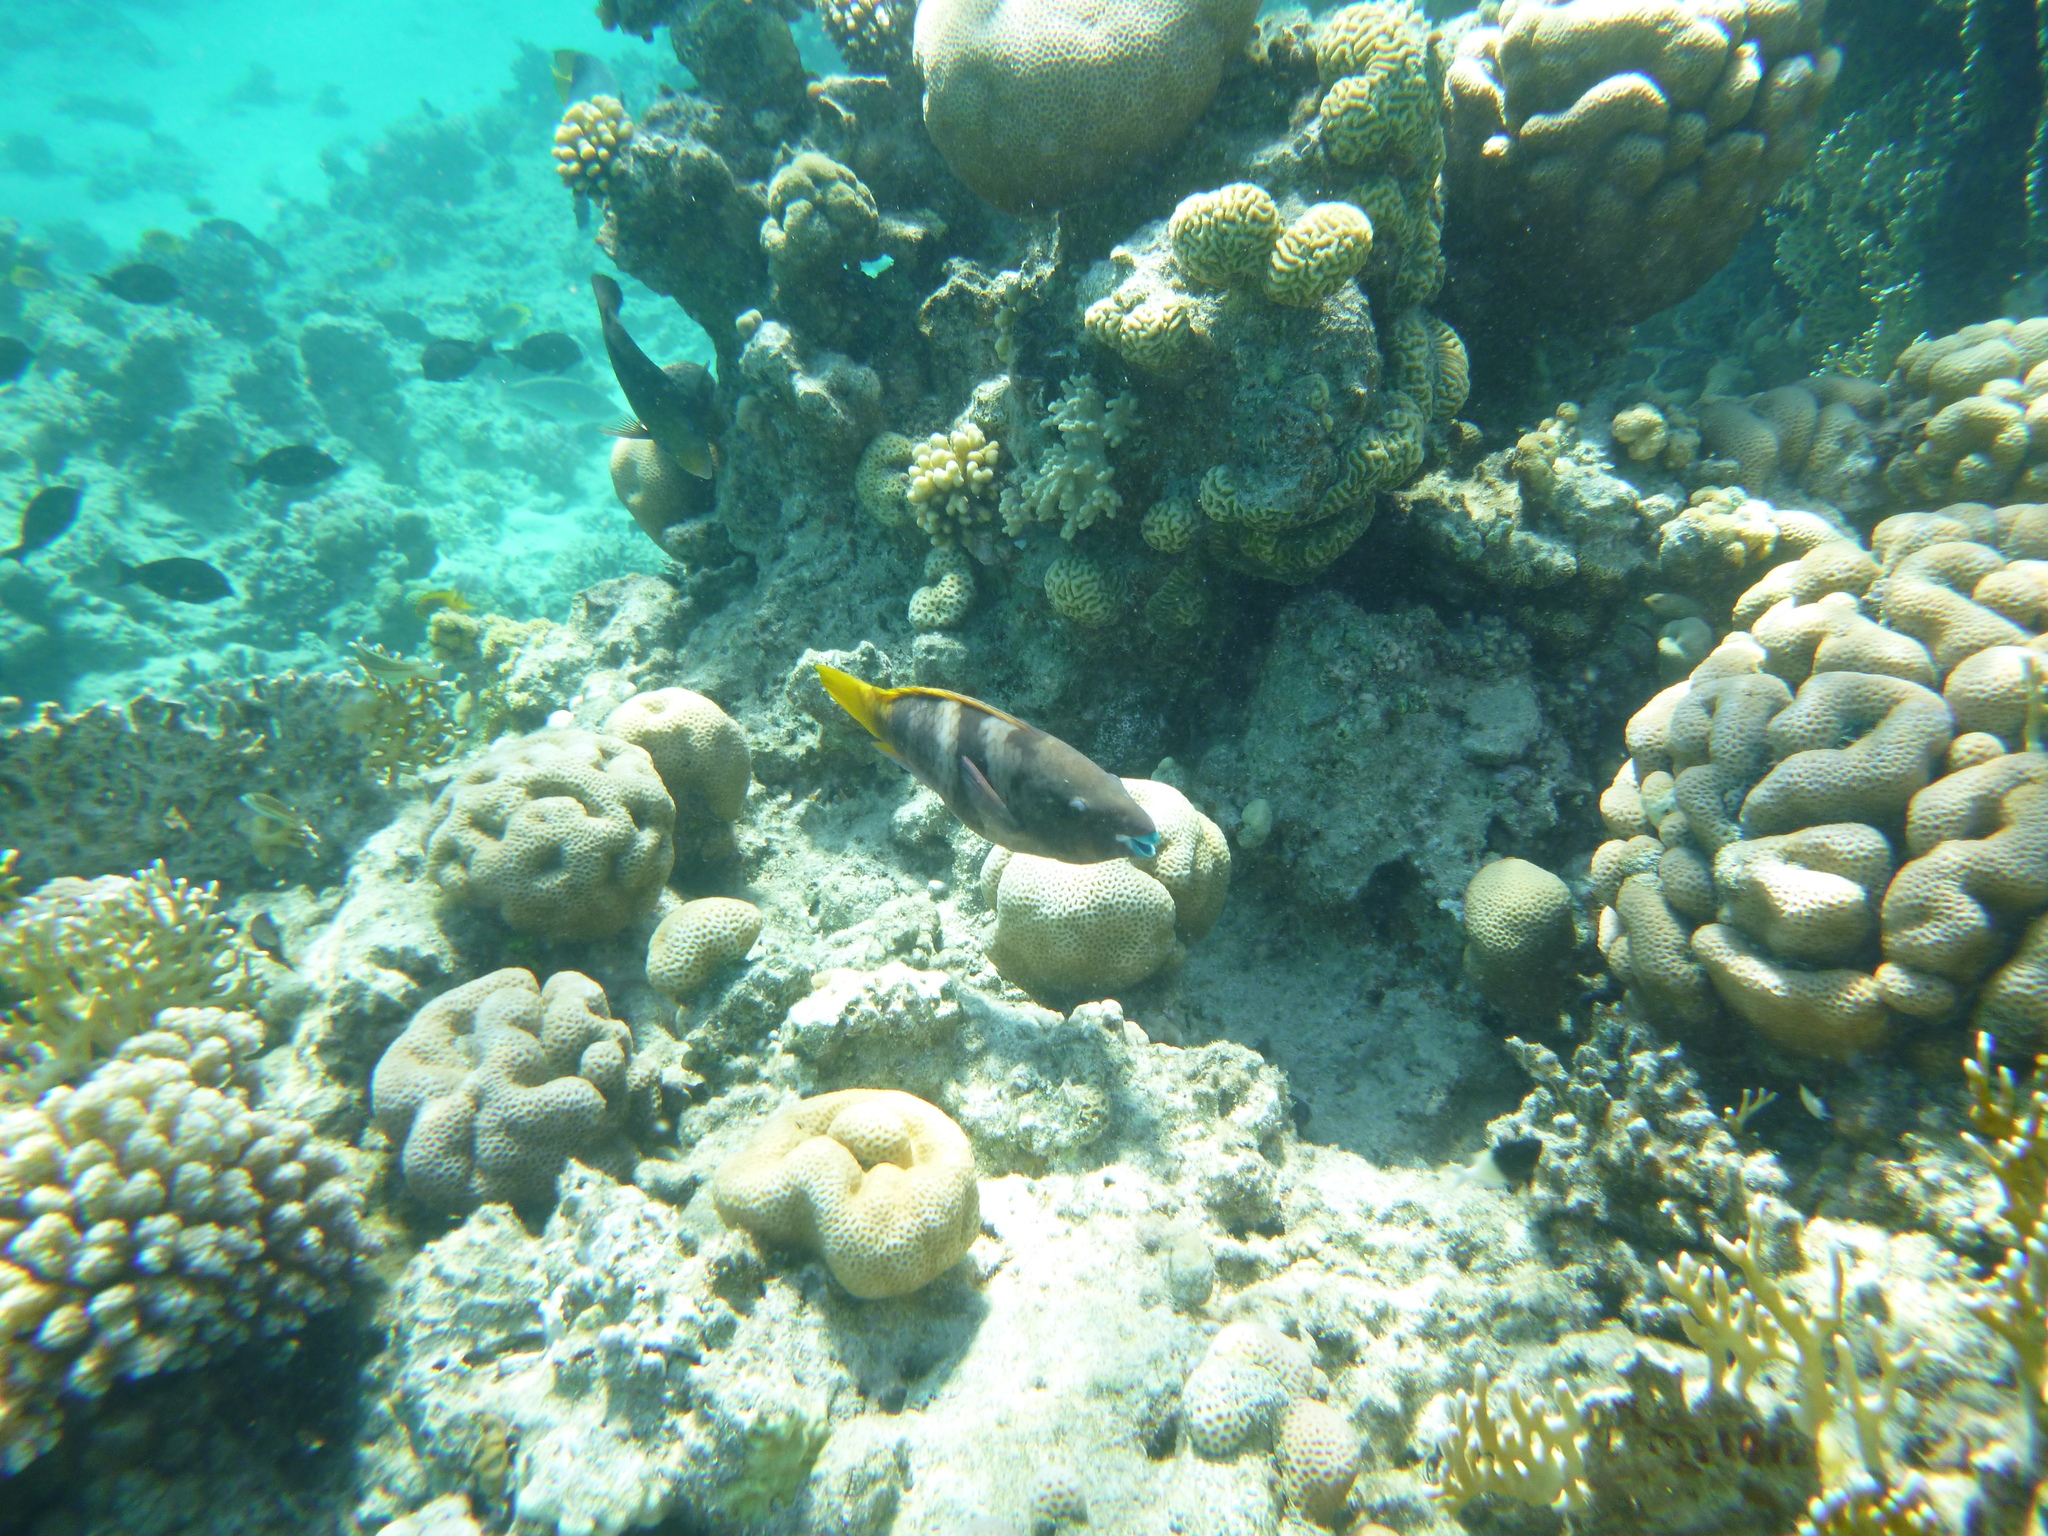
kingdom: Animalia
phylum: Chordata
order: Perciformes
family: Scaridae
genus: Scarus
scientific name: Scarus ferrugineus
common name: Rusty parrotfish
